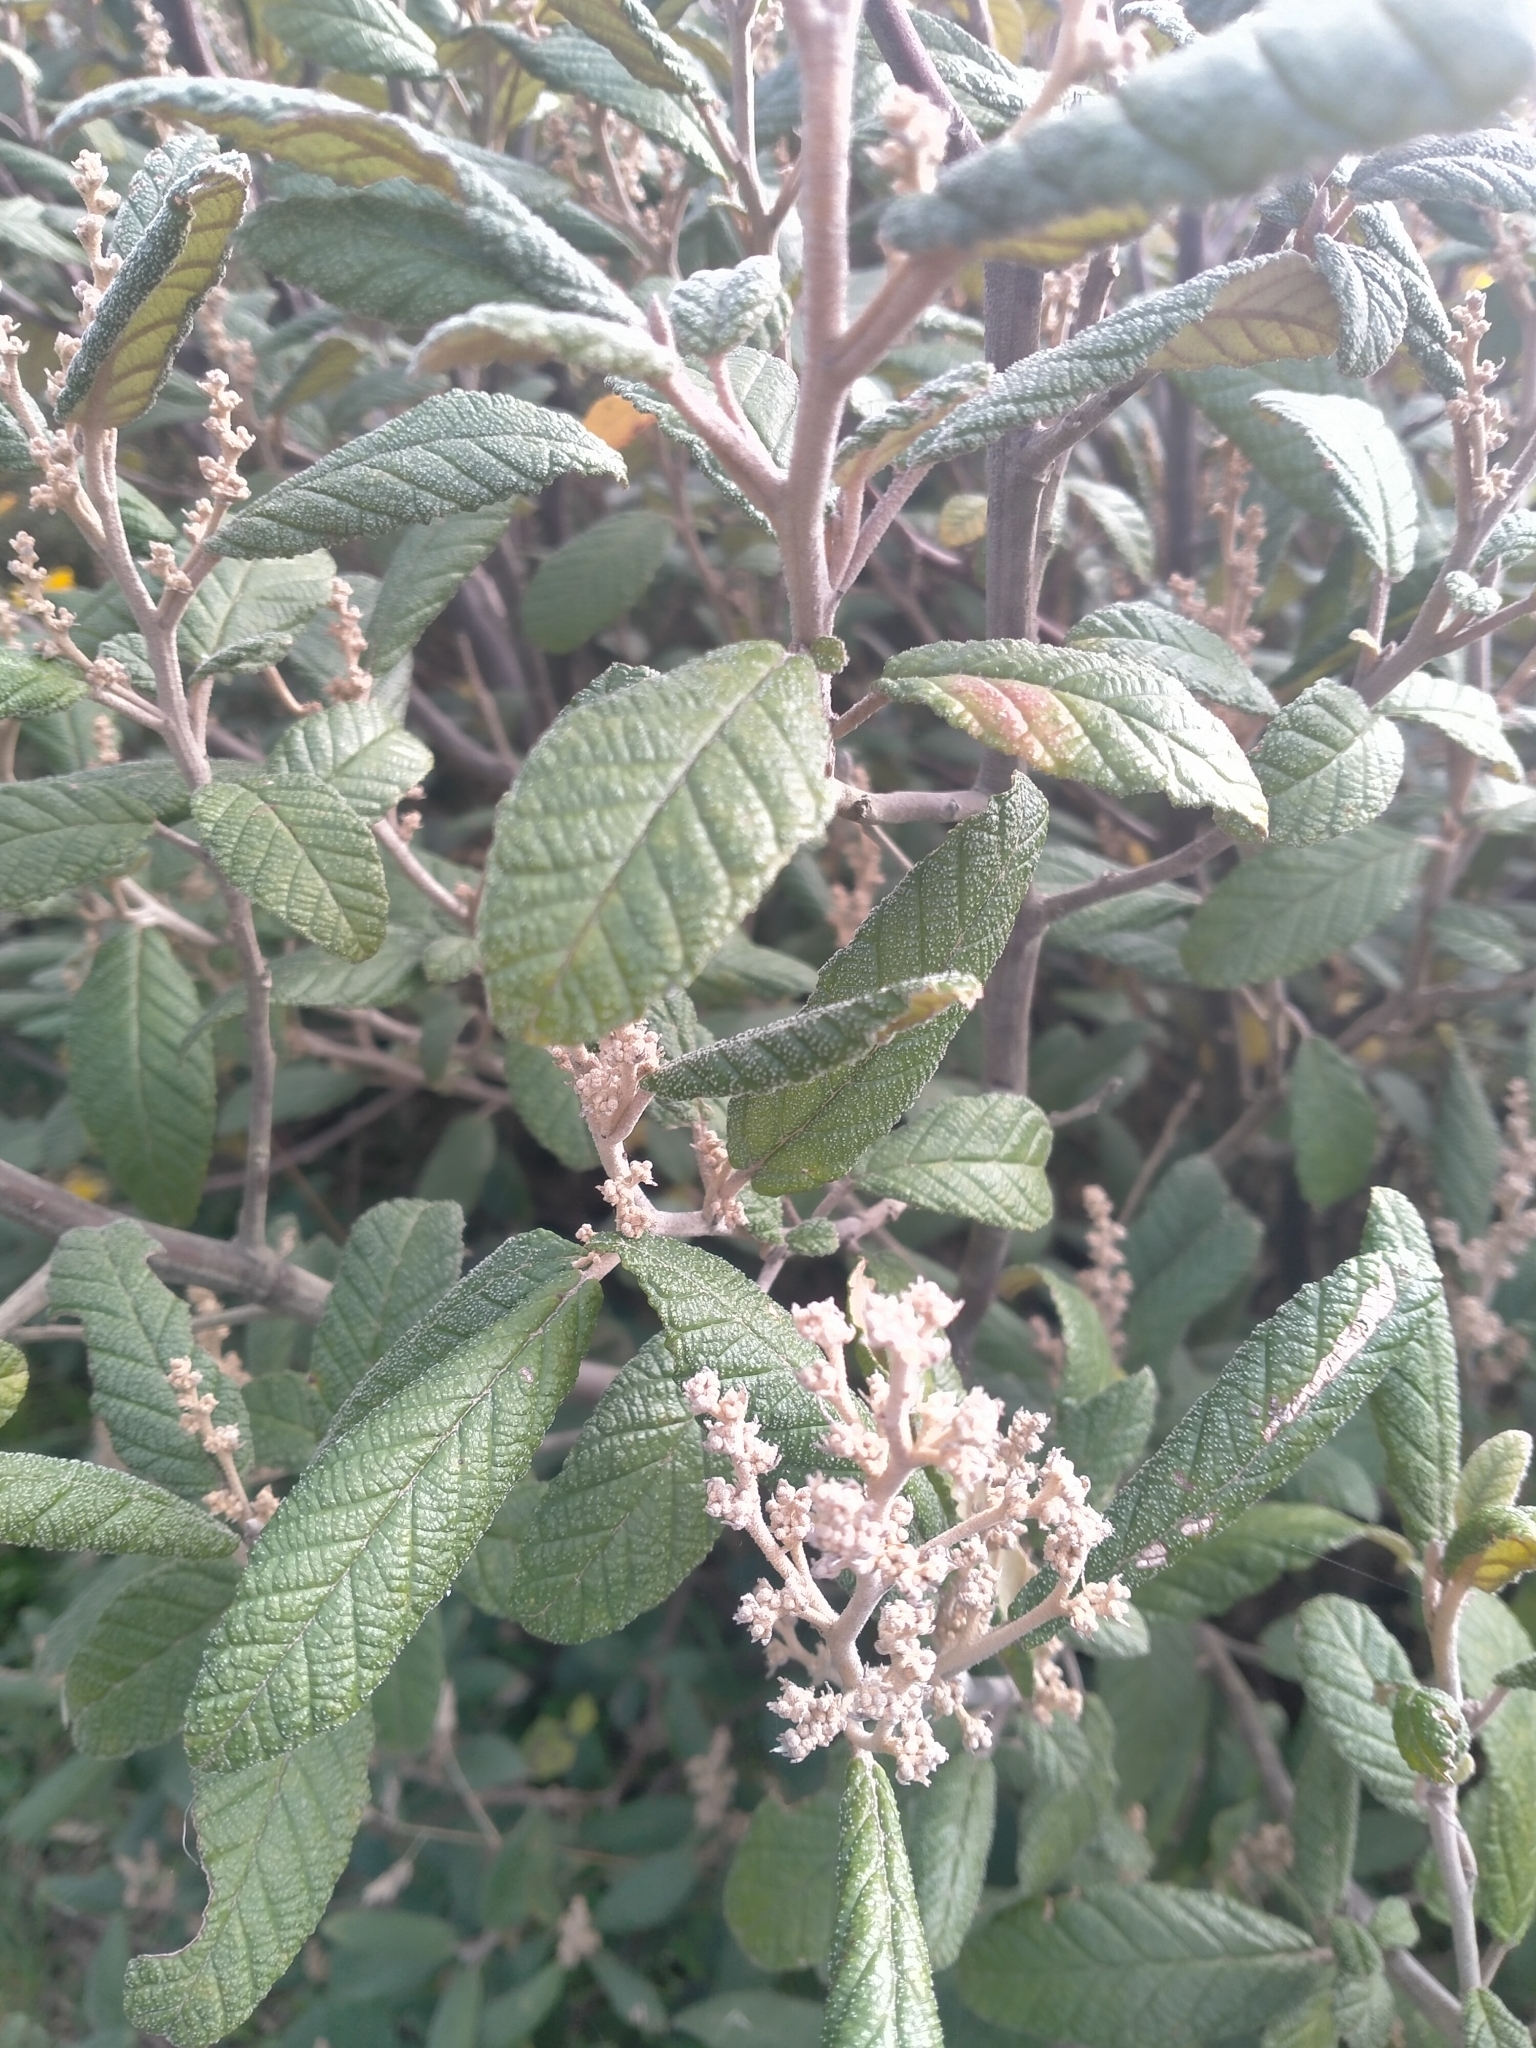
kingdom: Plantae
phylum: Tracheophyta
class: Magnoliopsida
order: Rosales
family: Rhamnaceae
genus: Pomaderris
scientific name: Pomaderris apetala
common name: Hazel pomaderris
